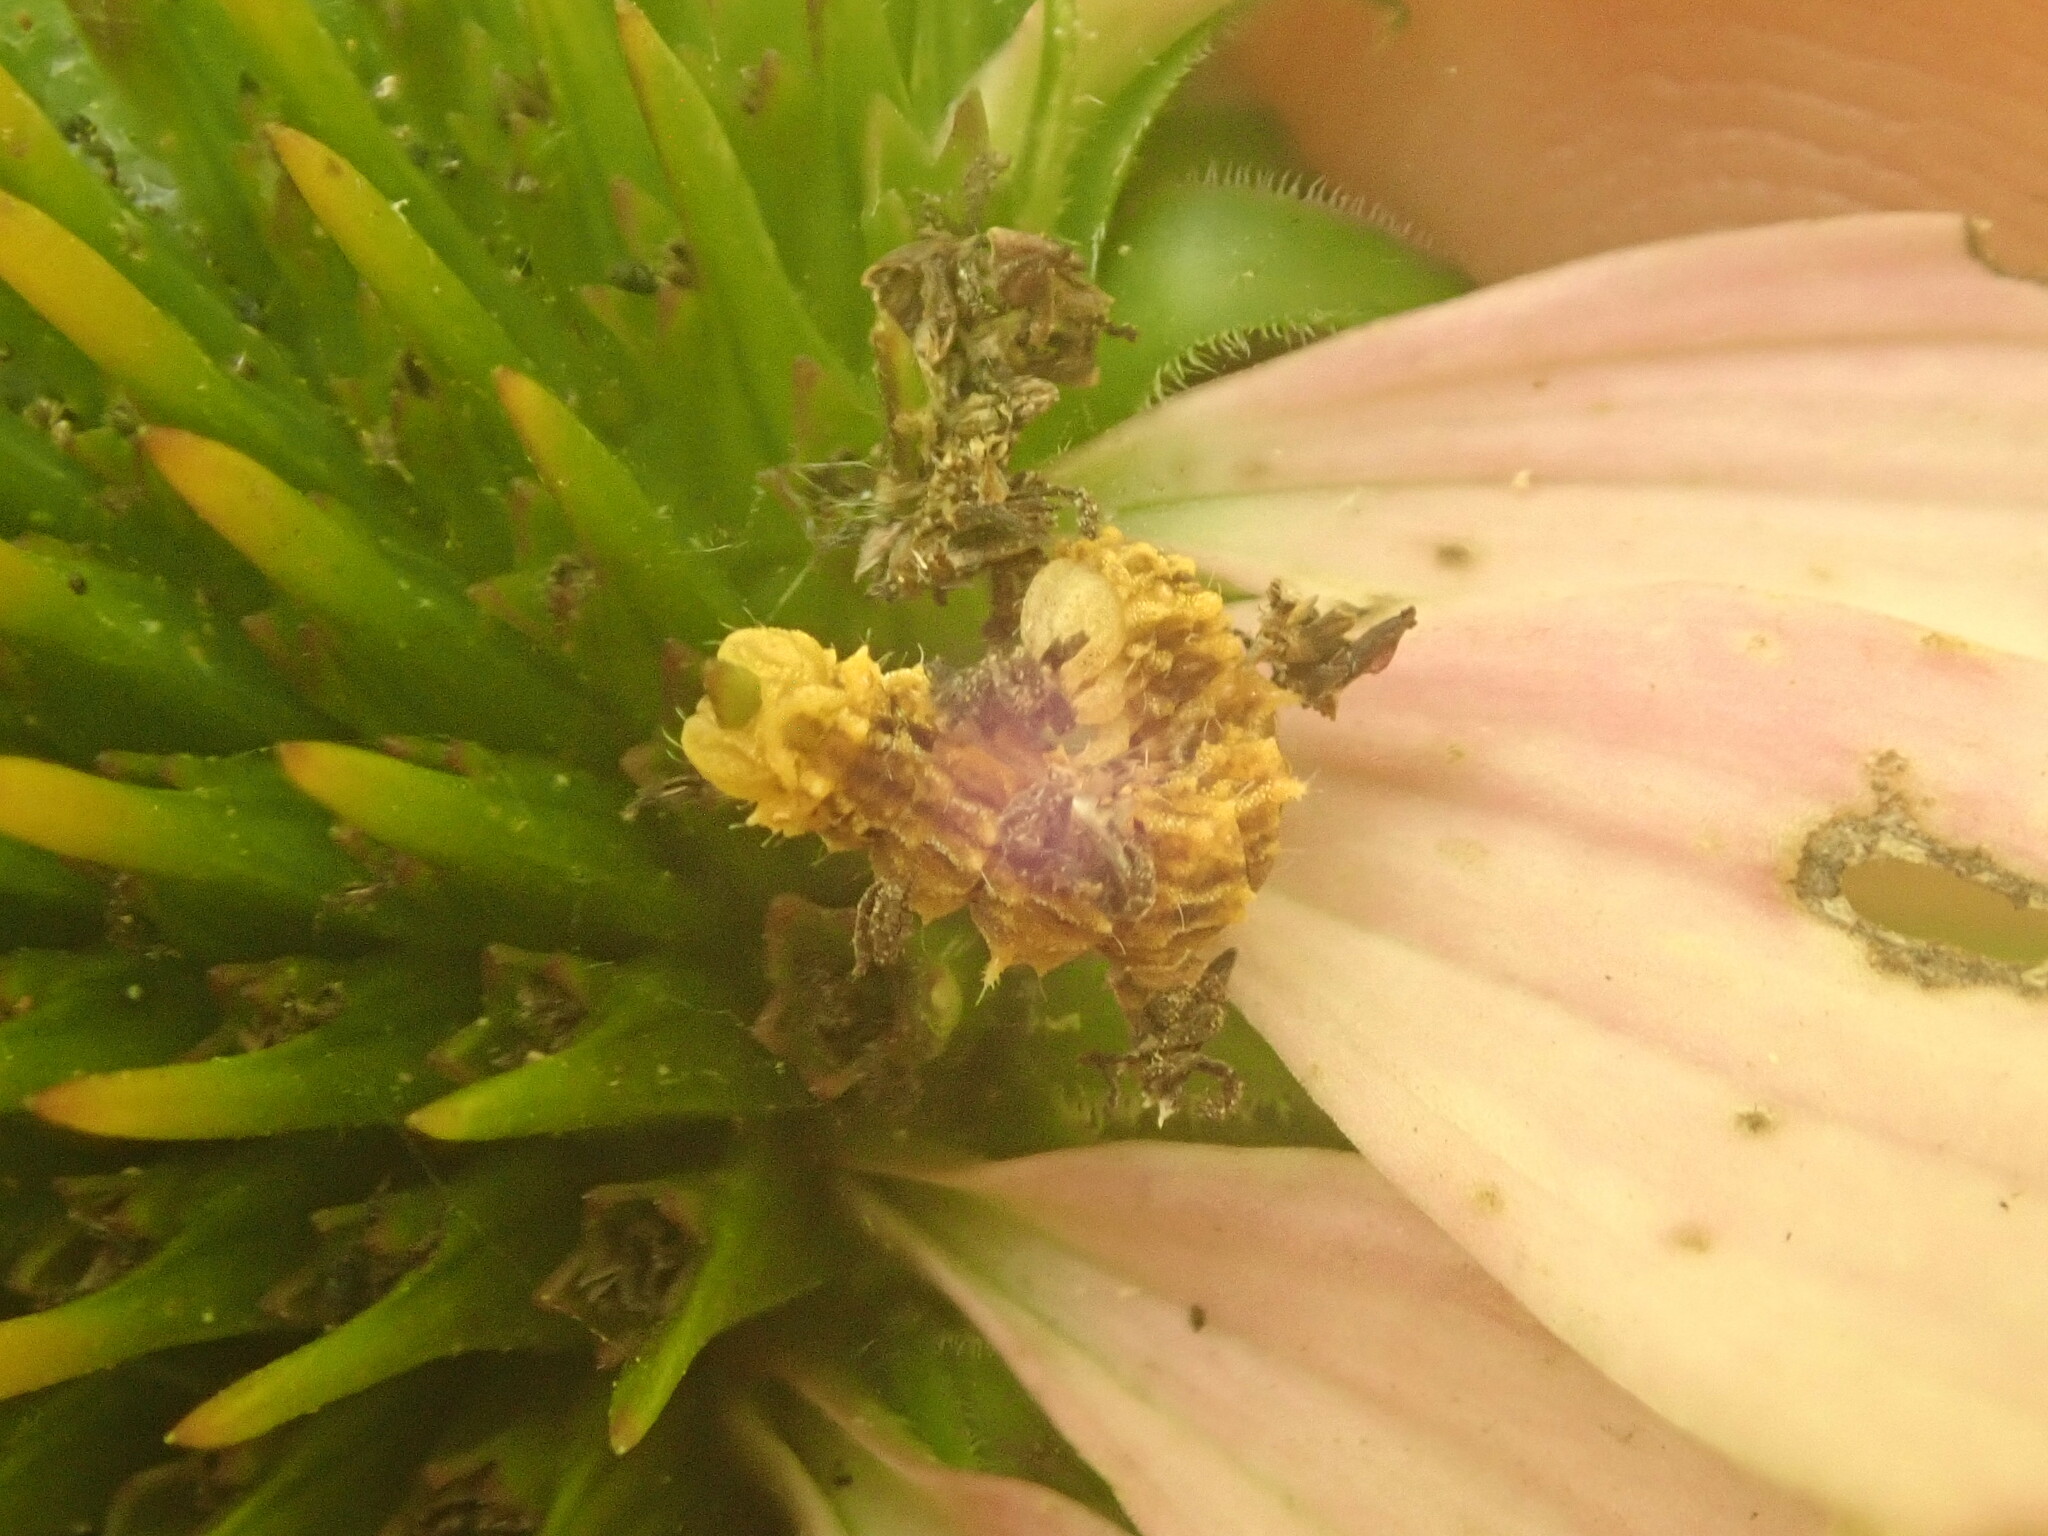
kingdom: Animalia
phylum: Arthropoda
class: Insecta
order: Lepidoptera
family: Geometridae
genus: Synchlora
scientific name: Synchlora aerata
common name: Wavy-lined emerald
